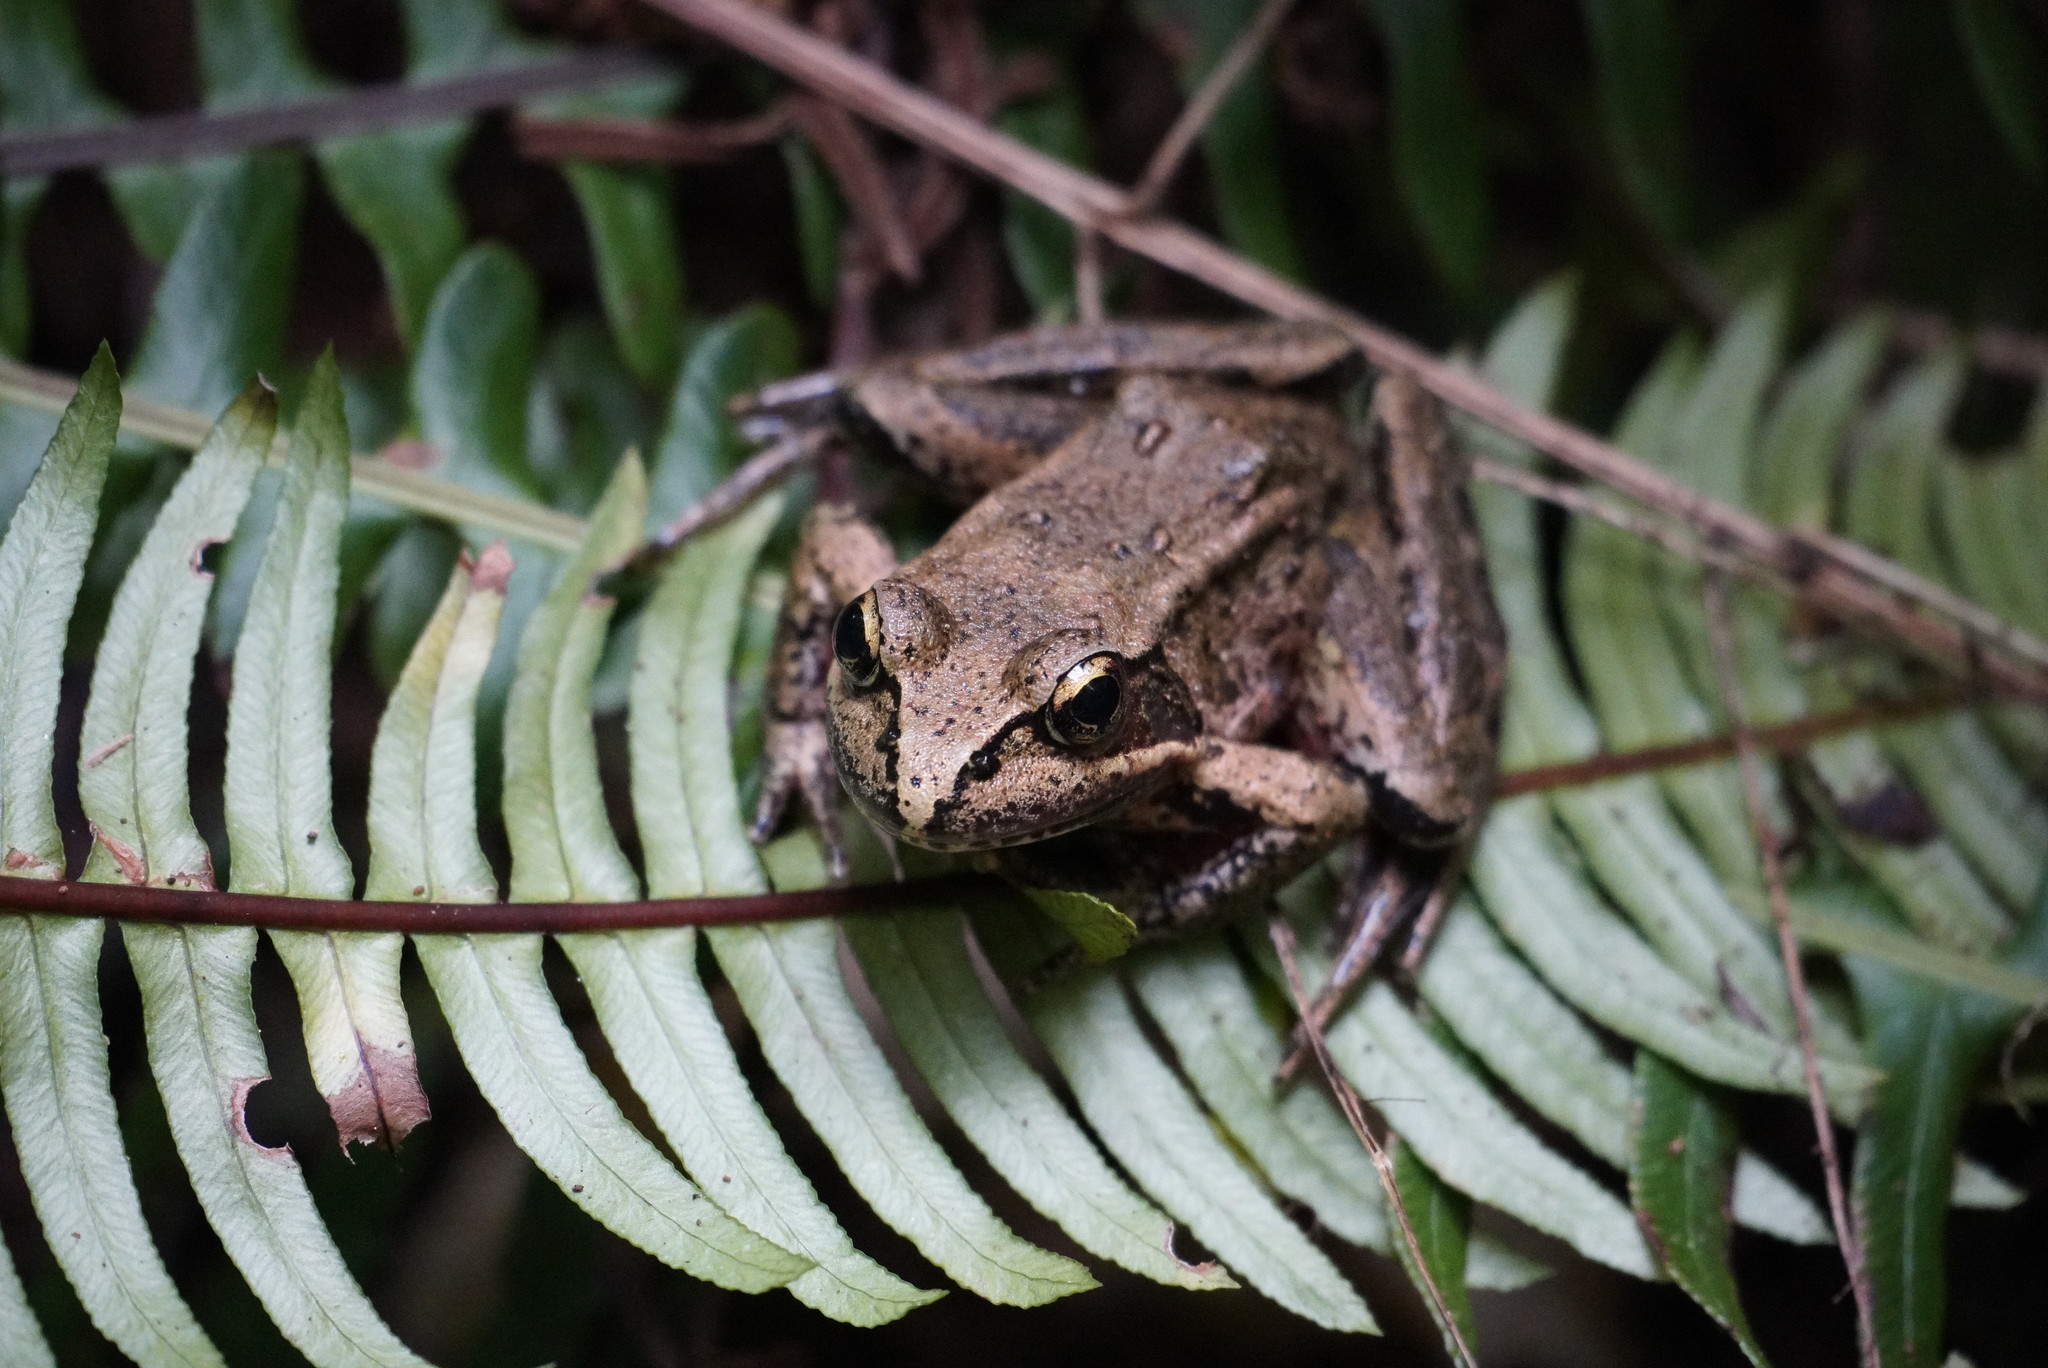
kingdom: Animalia
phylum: Chordata
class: Amphibia
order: Anura
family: Ranidae
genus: Rana
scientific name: Rana aurora
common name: Red-legged frog
